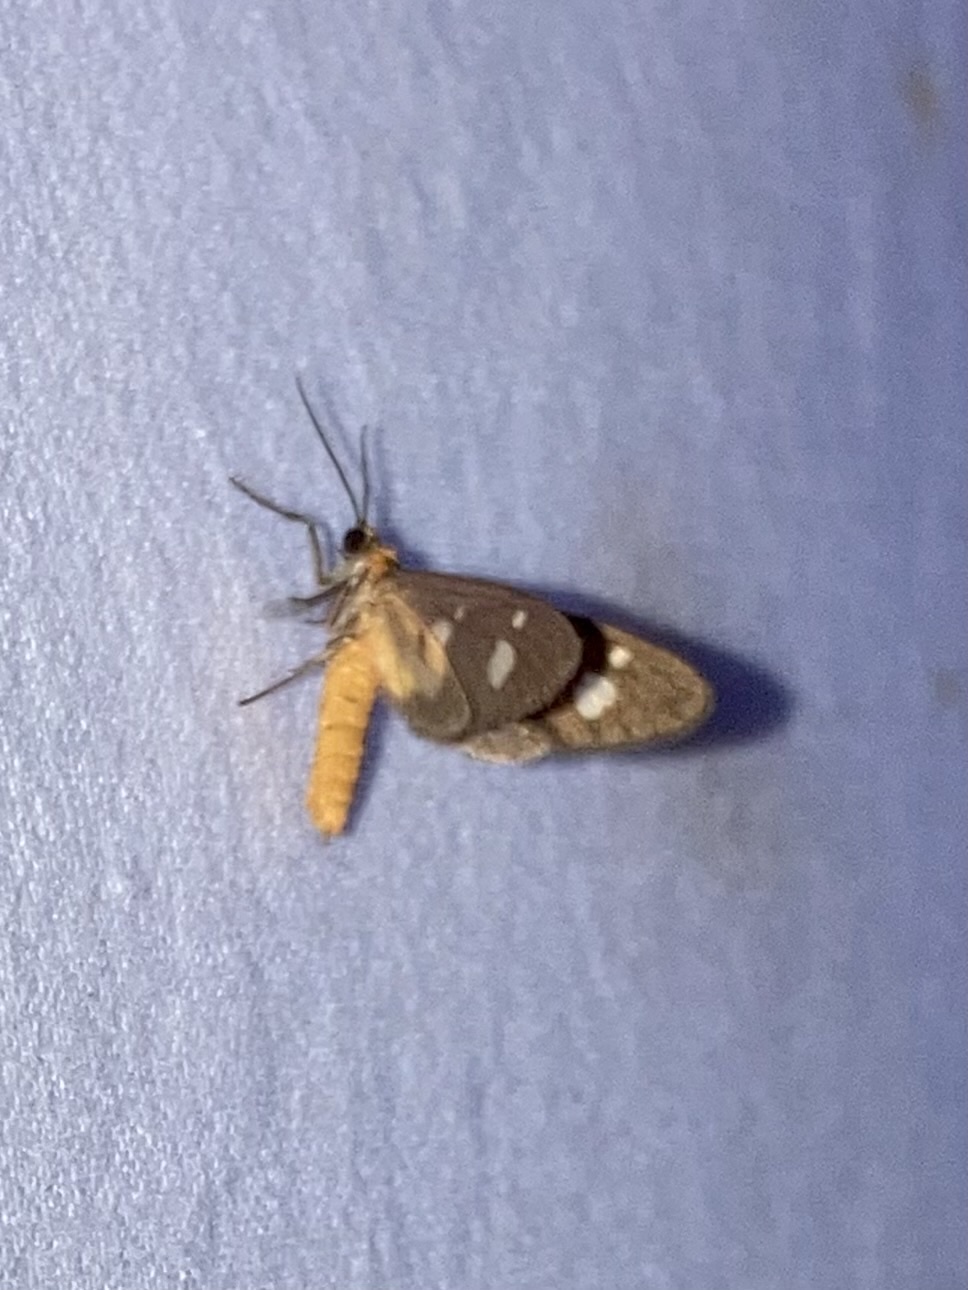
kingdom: Animalia
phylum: Arthropoda
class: Insecta
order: Lepidoptera
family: Erebidae
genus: Dysauxes
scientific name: Dysauxes punctata
